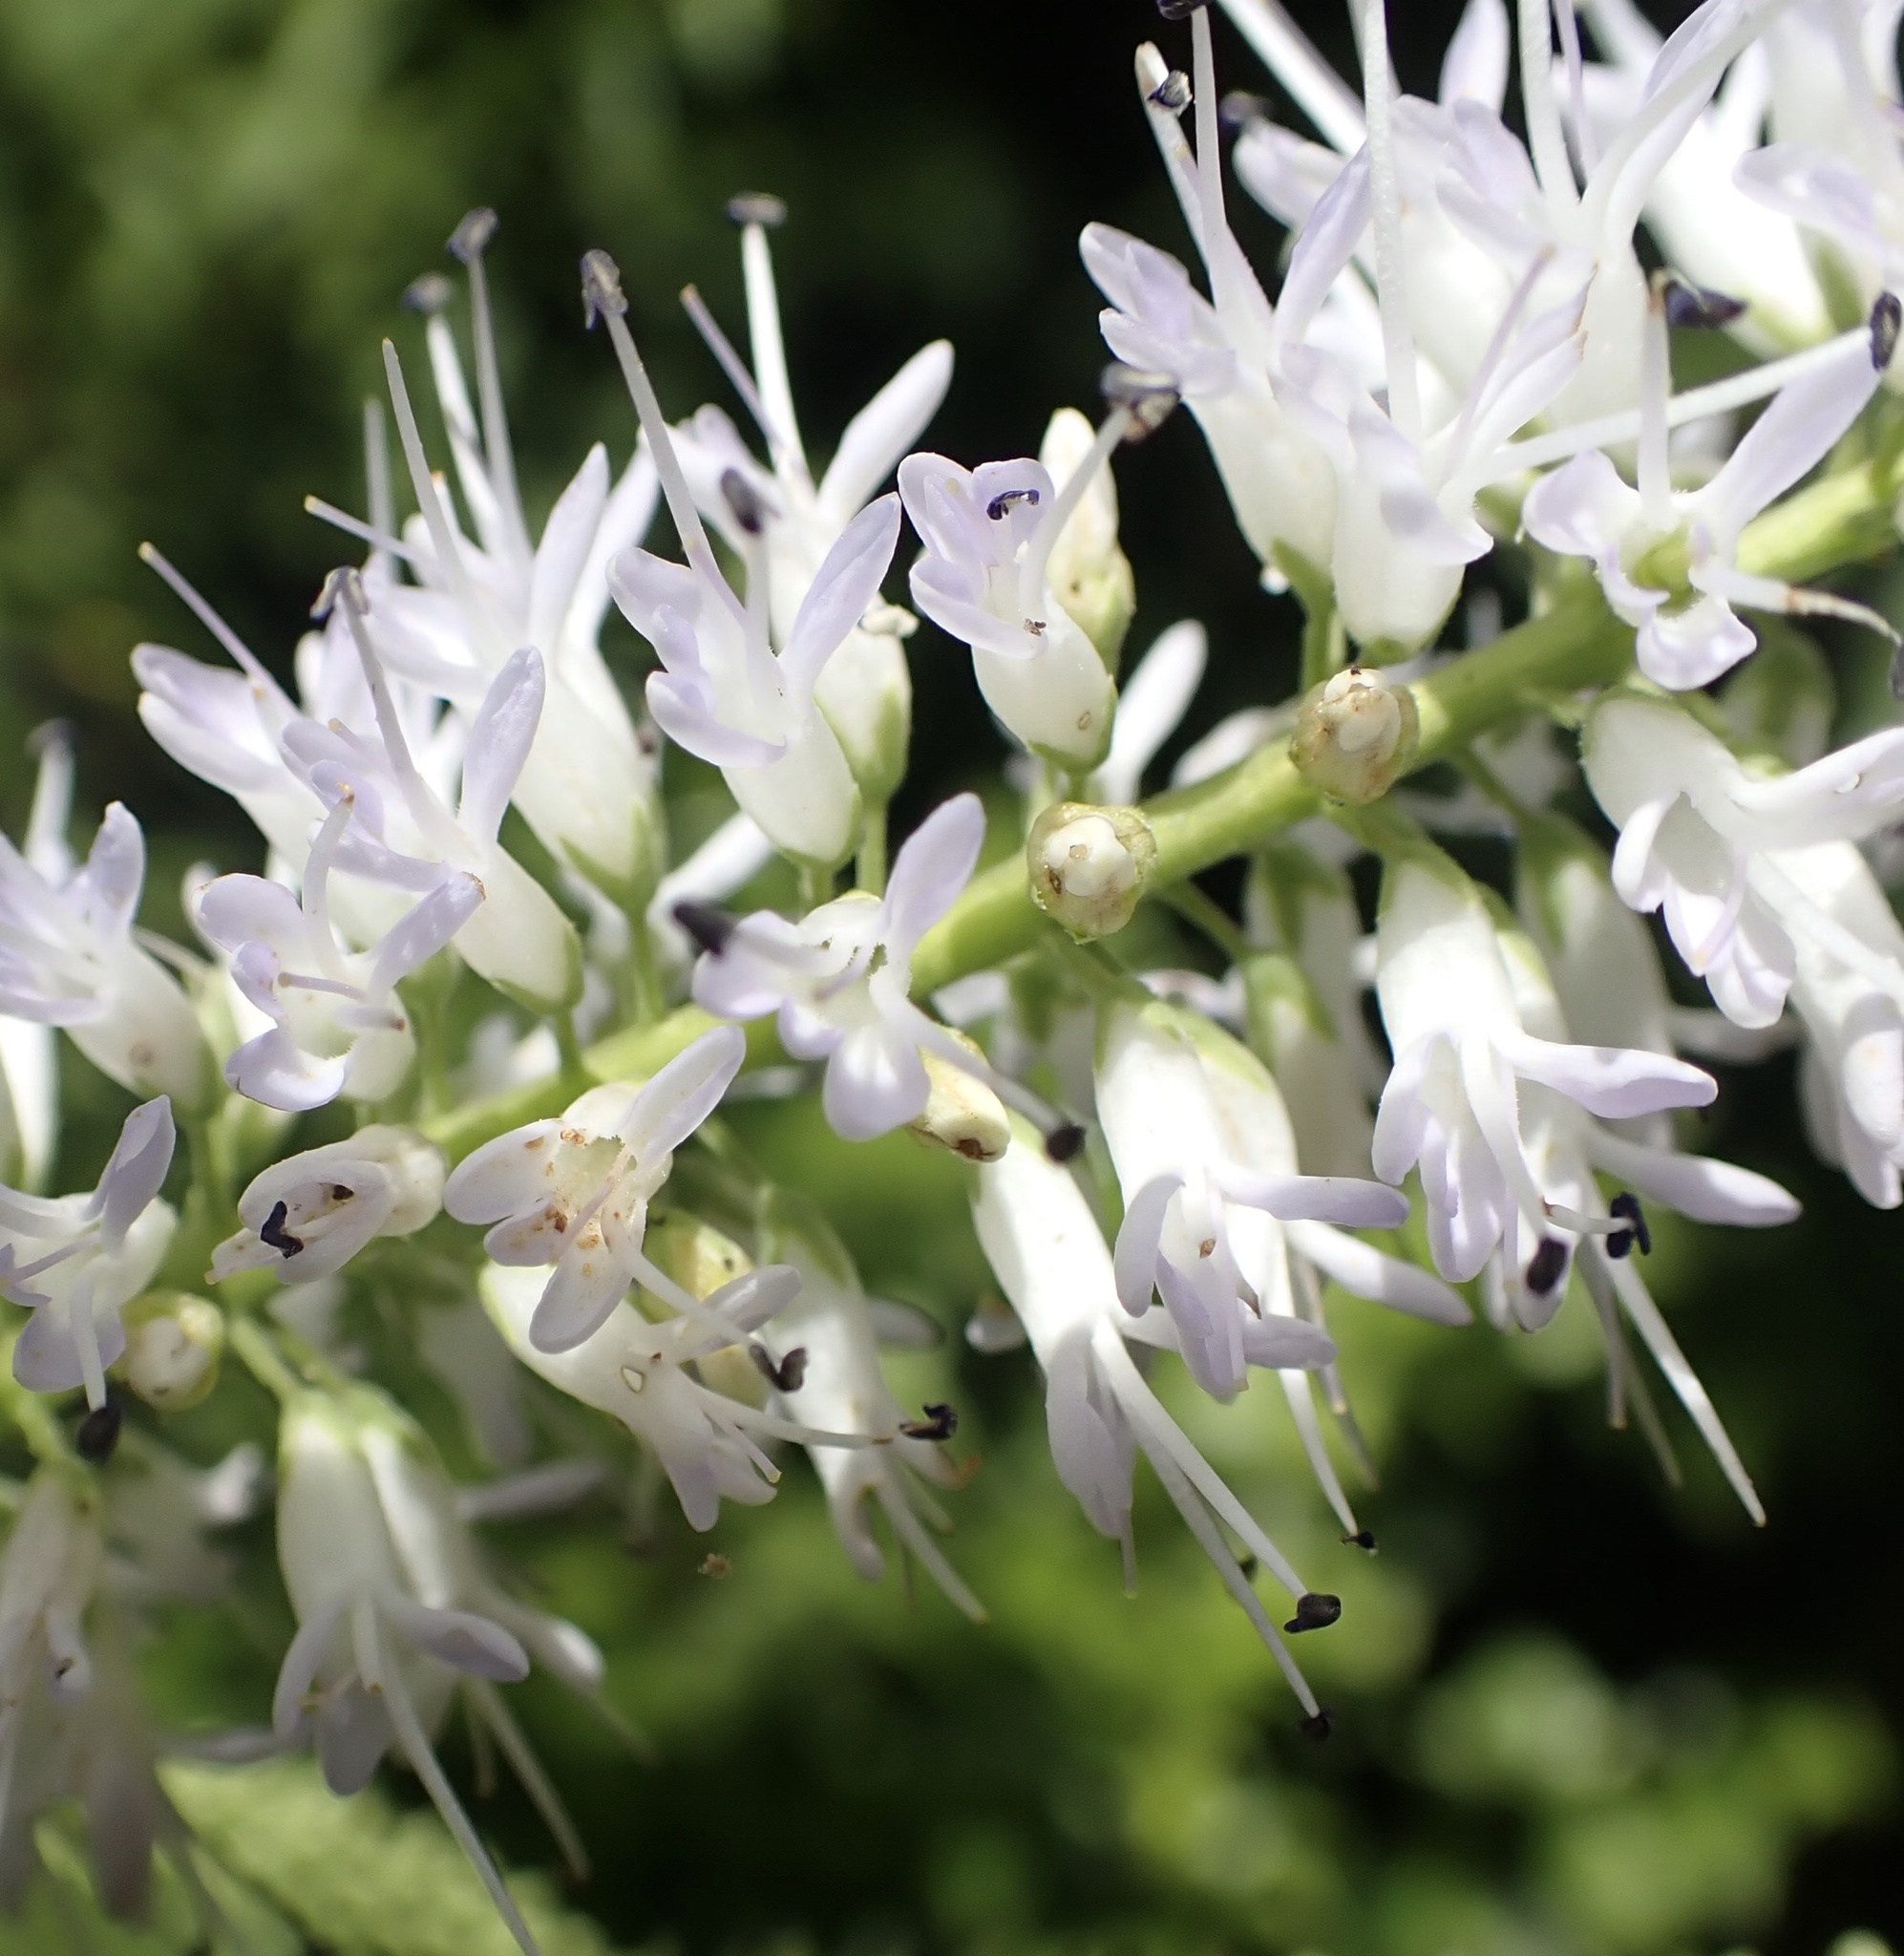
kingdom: Plantae
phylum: Tracheophyta
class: Magnoliopsida
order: Lamiales
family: Plantaginaceae
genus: Veronica
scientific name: Veronica stricta
